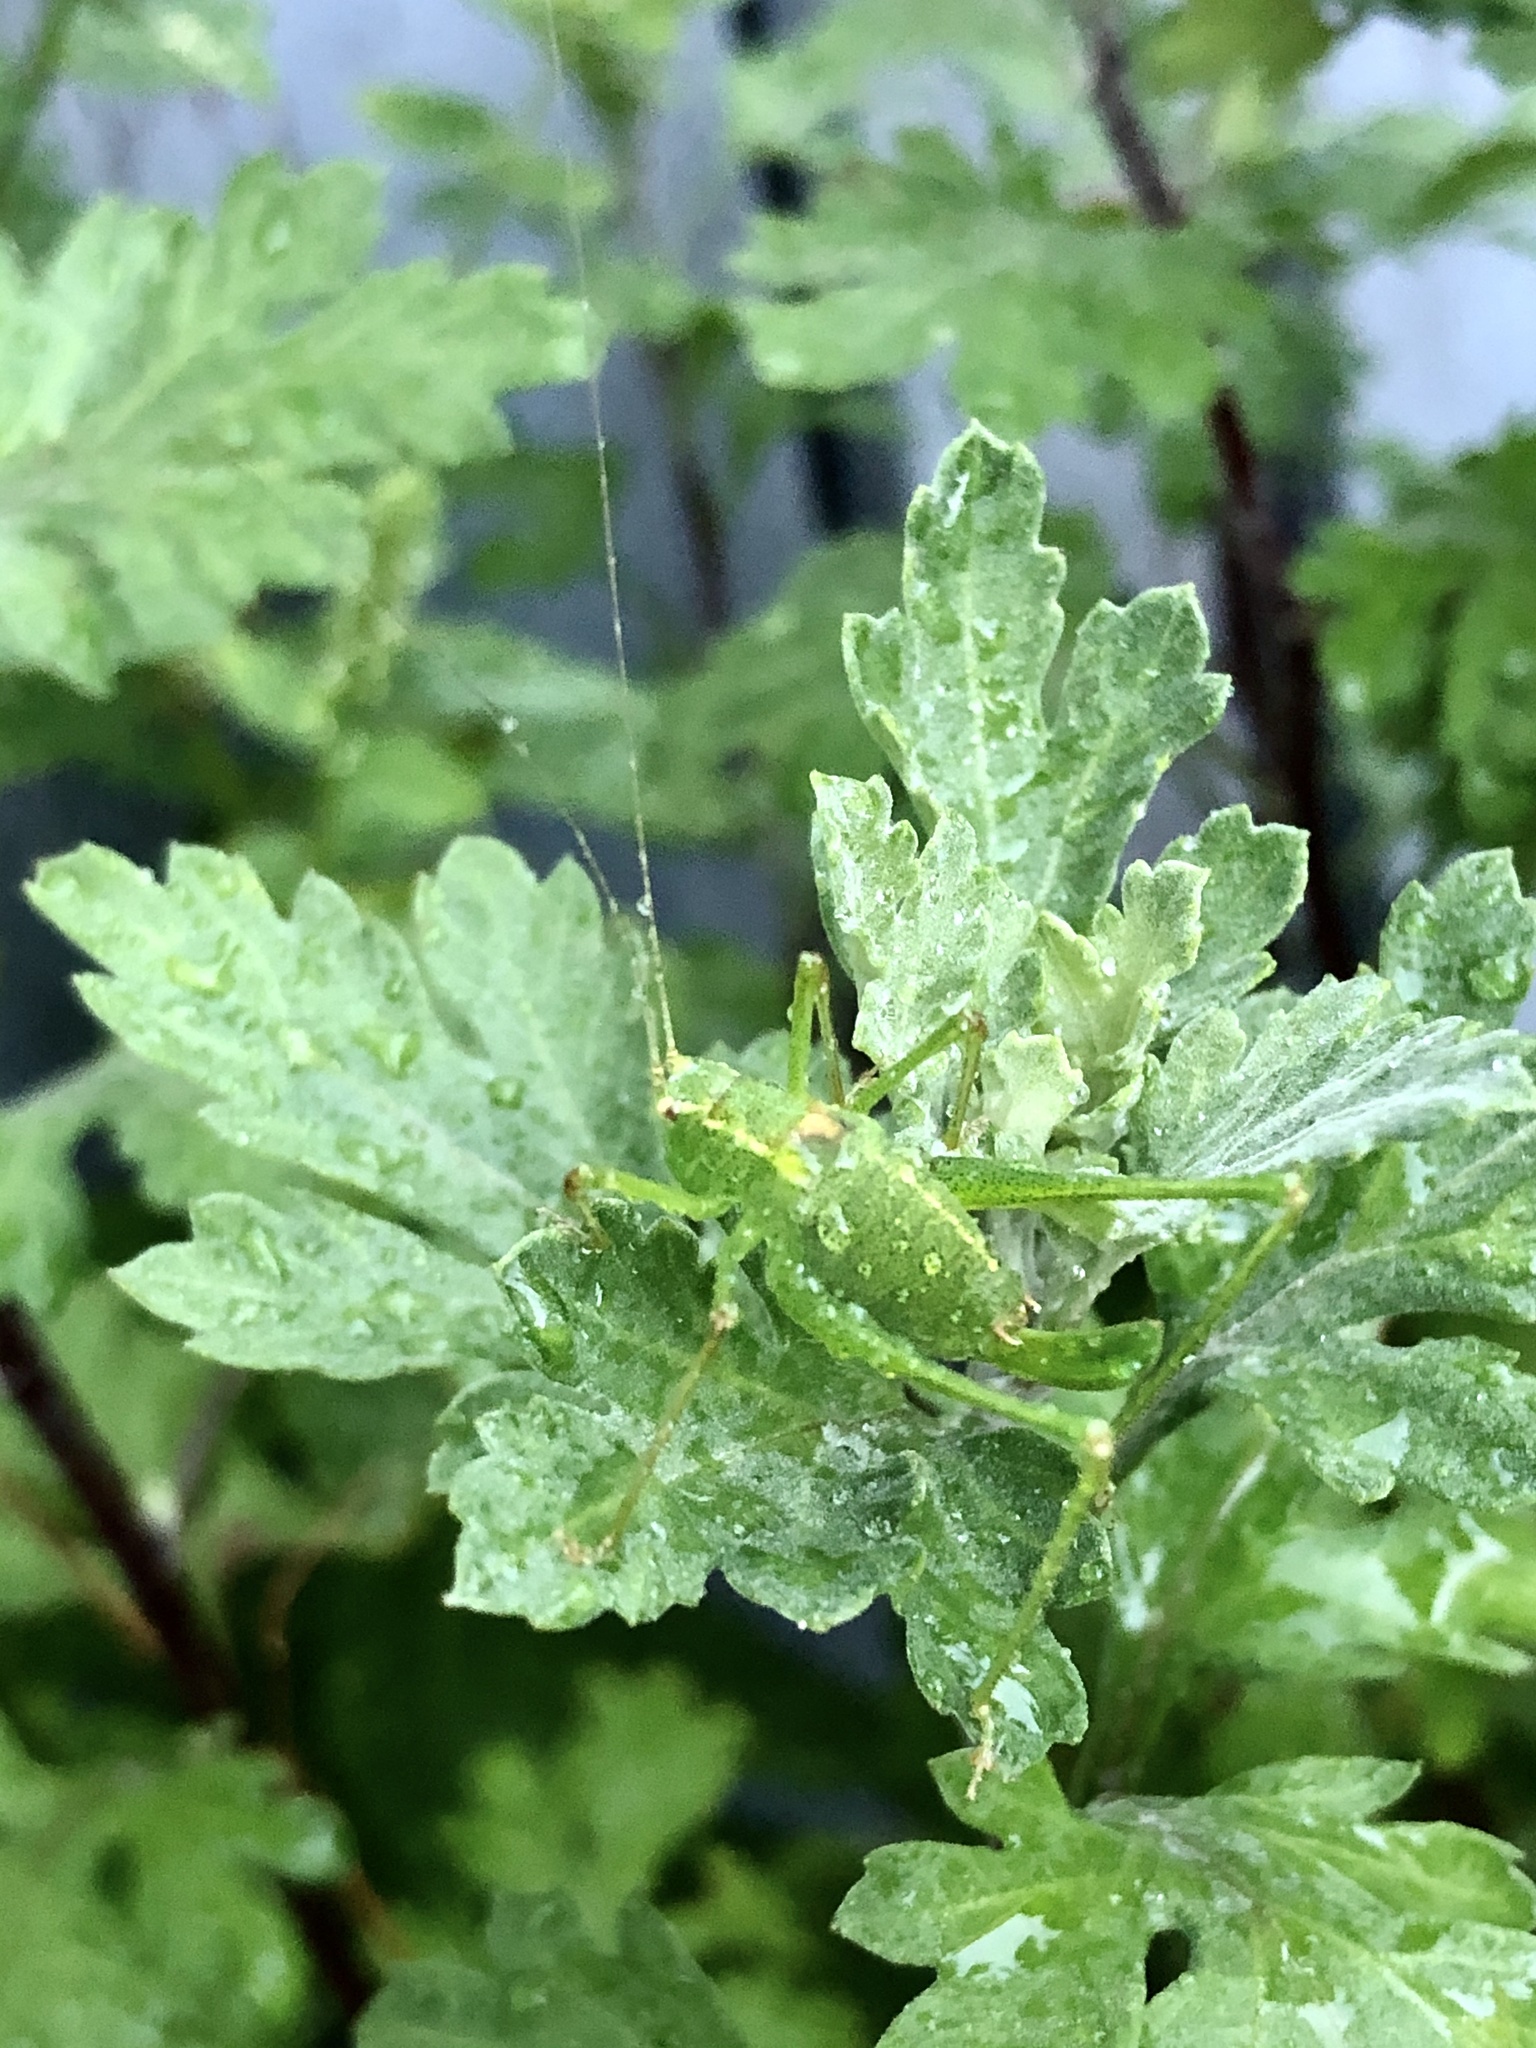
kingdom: Animalia
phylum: Arthropoda
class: Insecta
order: Orthoptera
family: Tettigoniidae
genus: Leptophyes
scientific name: Leptophyes punctatissima
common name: Speckled bush-cricket
